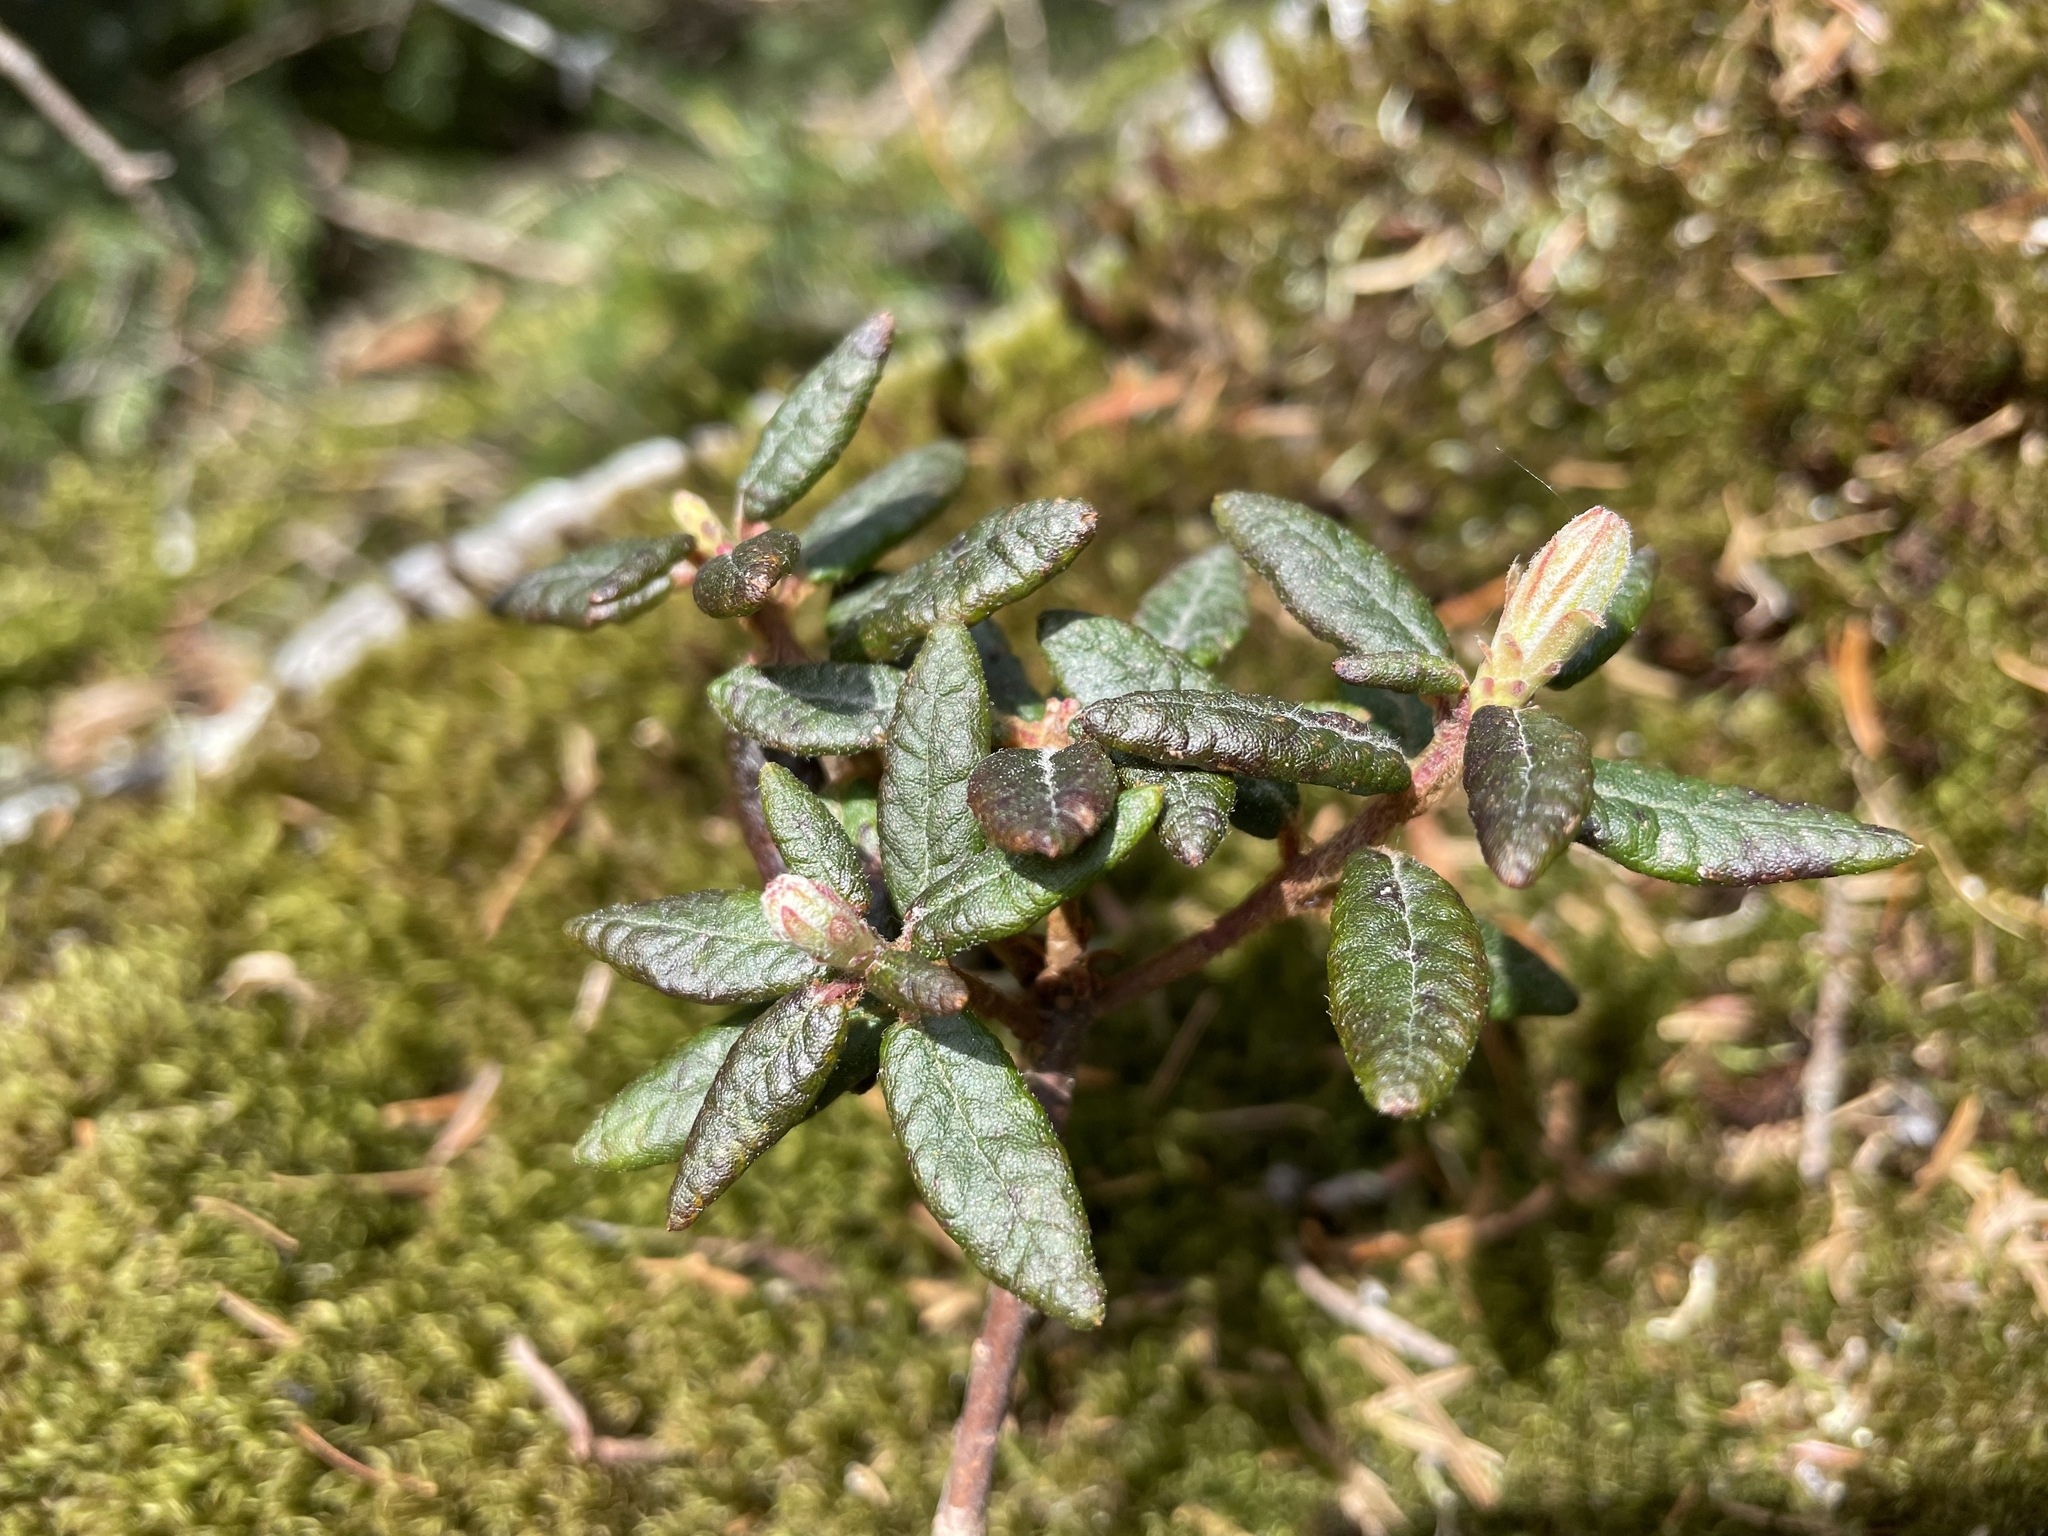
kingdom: Plantae
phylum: Tracheophyta
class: Magnoliopsida
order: Ericales
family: Ericaceae
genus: Rhododendron
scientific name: Rhododendron groenlandicum
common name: Bog labrador tea
